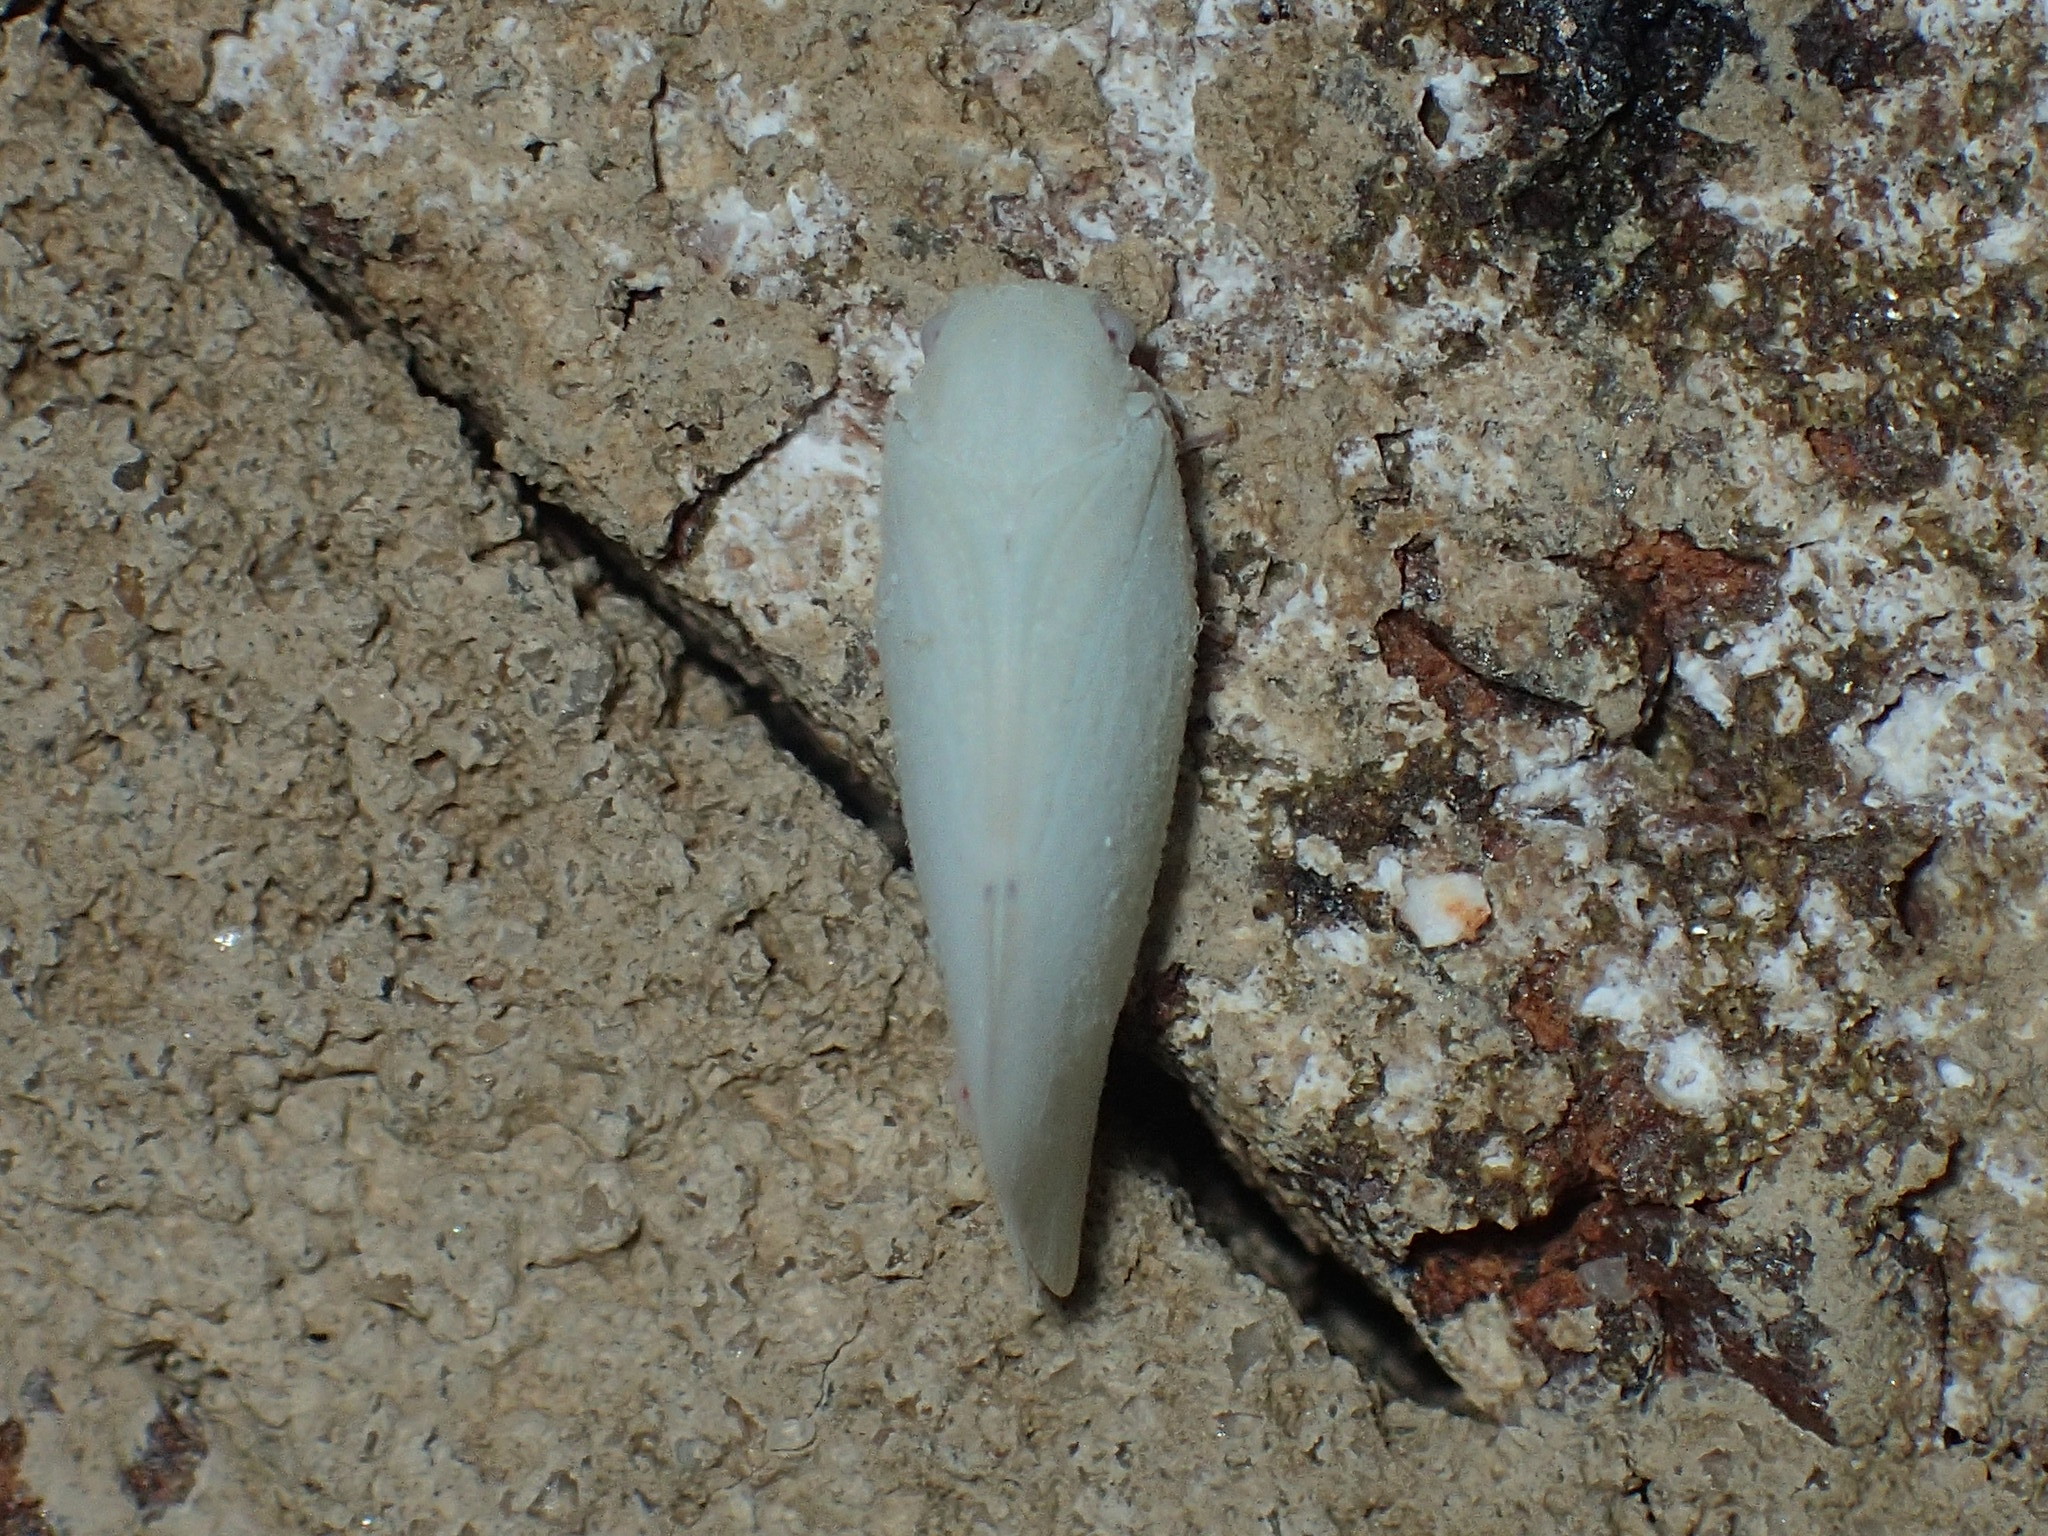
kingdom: Animalia
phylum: Arthropoda
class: Insecta
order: Hemiptera
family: Flatidae
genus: Flatormenis
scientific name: Flatormenis proxima
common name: Northern flatid planthopper
